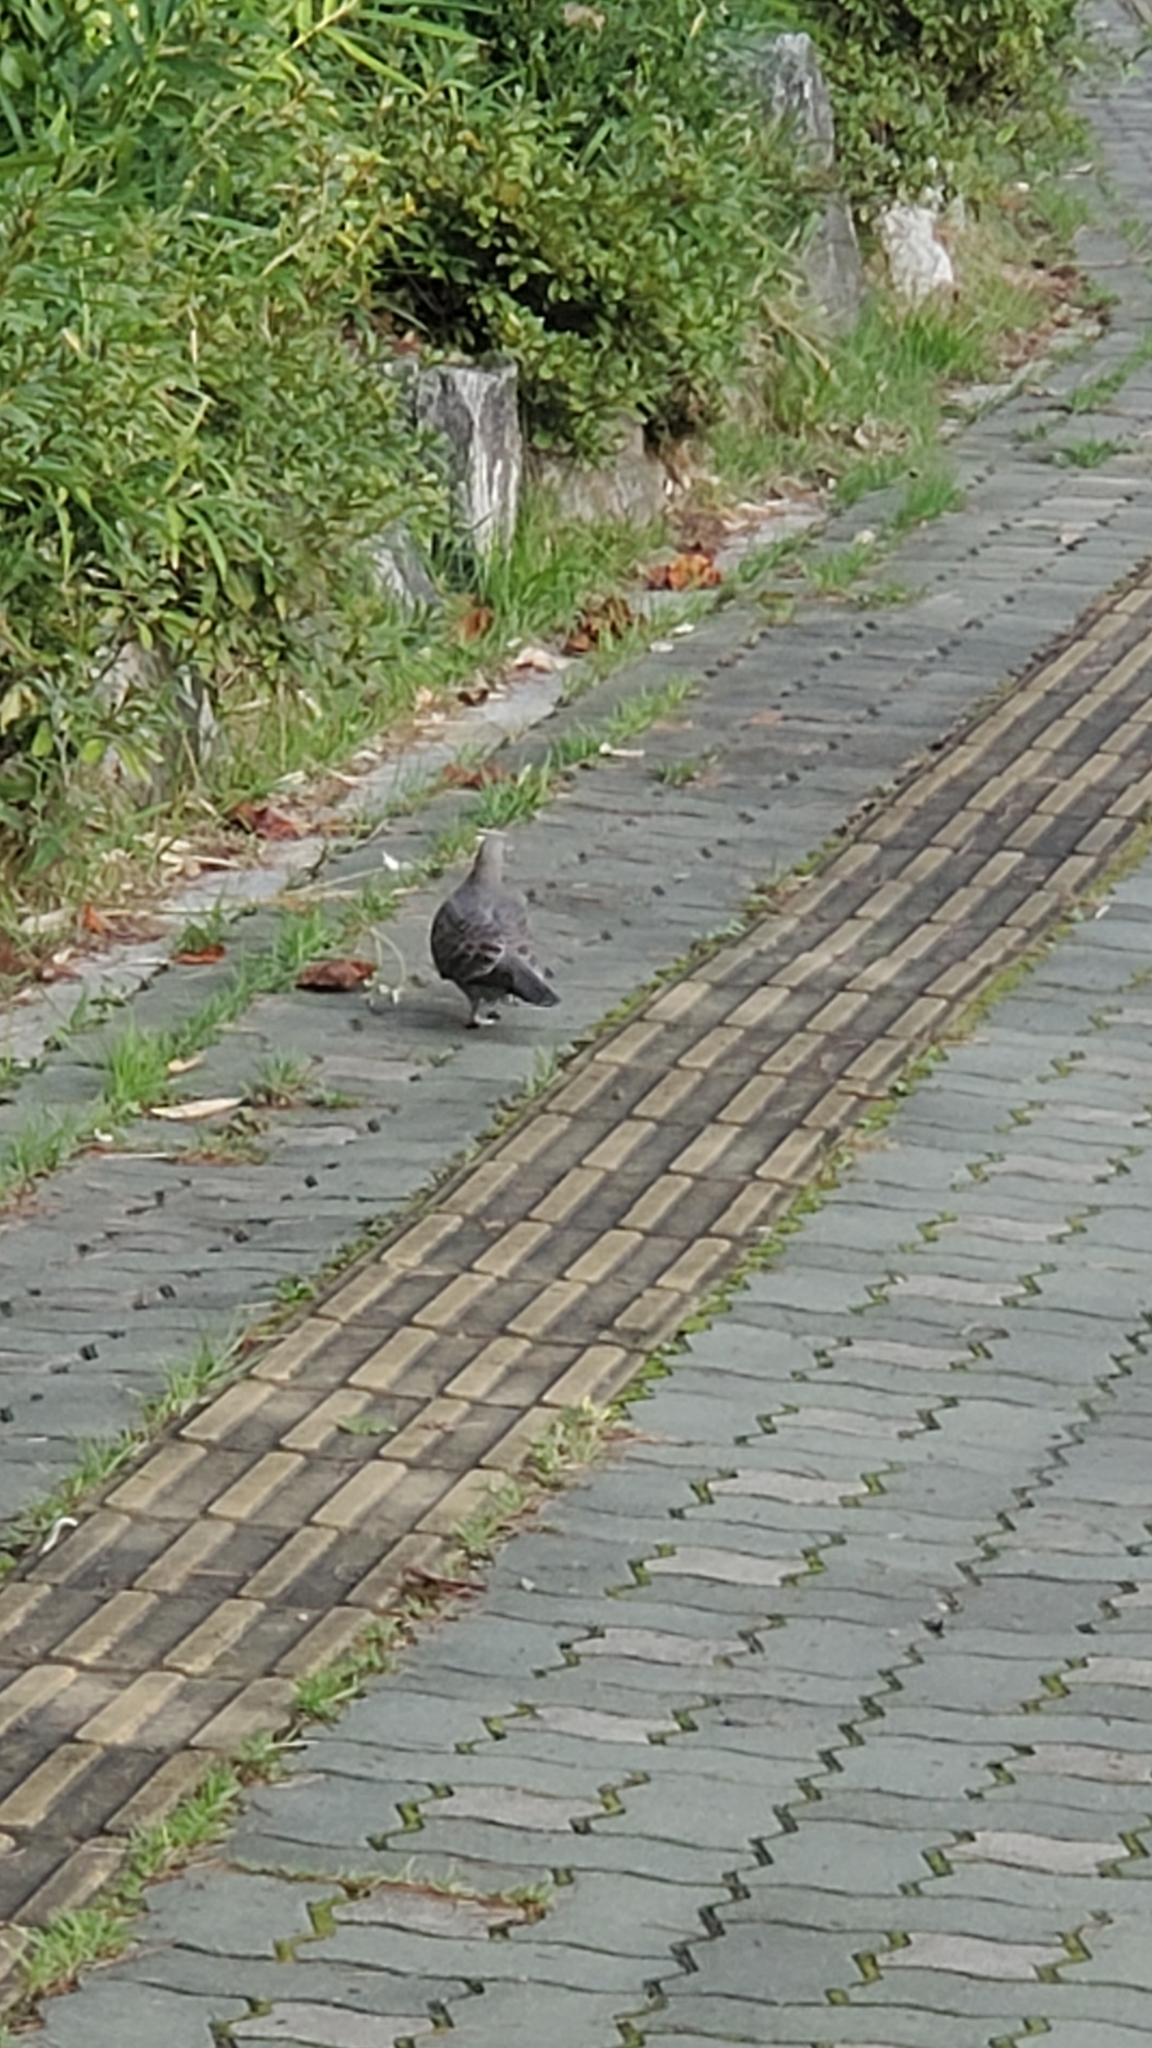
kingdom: Animalia
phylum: Chordata
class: Aves
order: Columbiformes
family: Columbidae
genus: Streptopelia
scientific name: Streptopelia orientalis
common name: Oriental turtle dove
